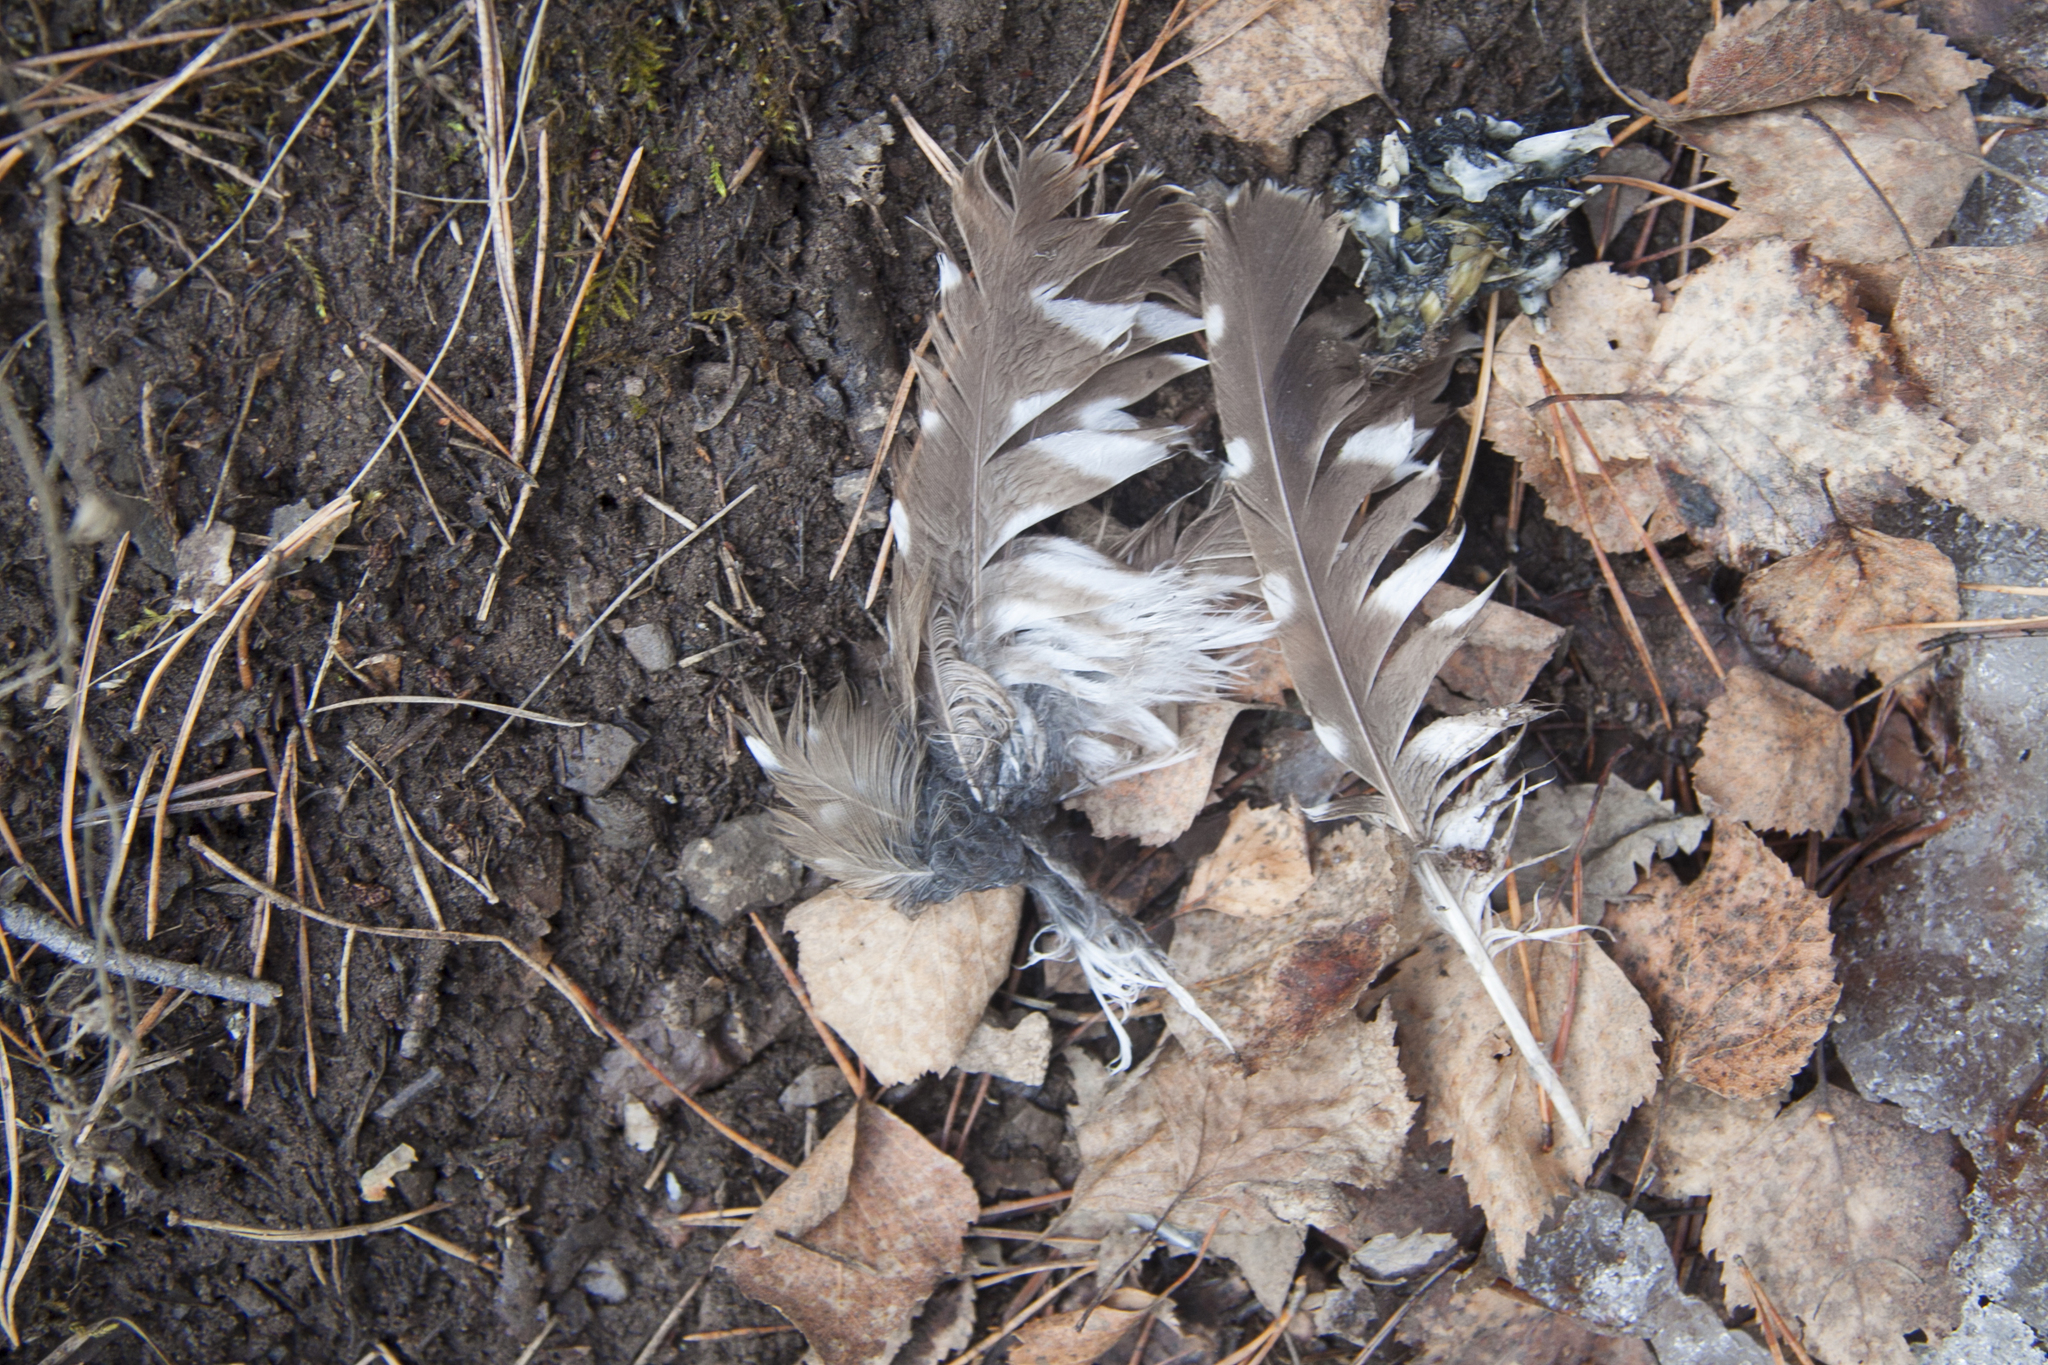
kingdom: Animalia
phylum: Chordata
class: Aves
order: Strigiformes
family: Strigidae
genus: Aegolius
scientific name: Aegolius funereus
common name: Boreal owl
